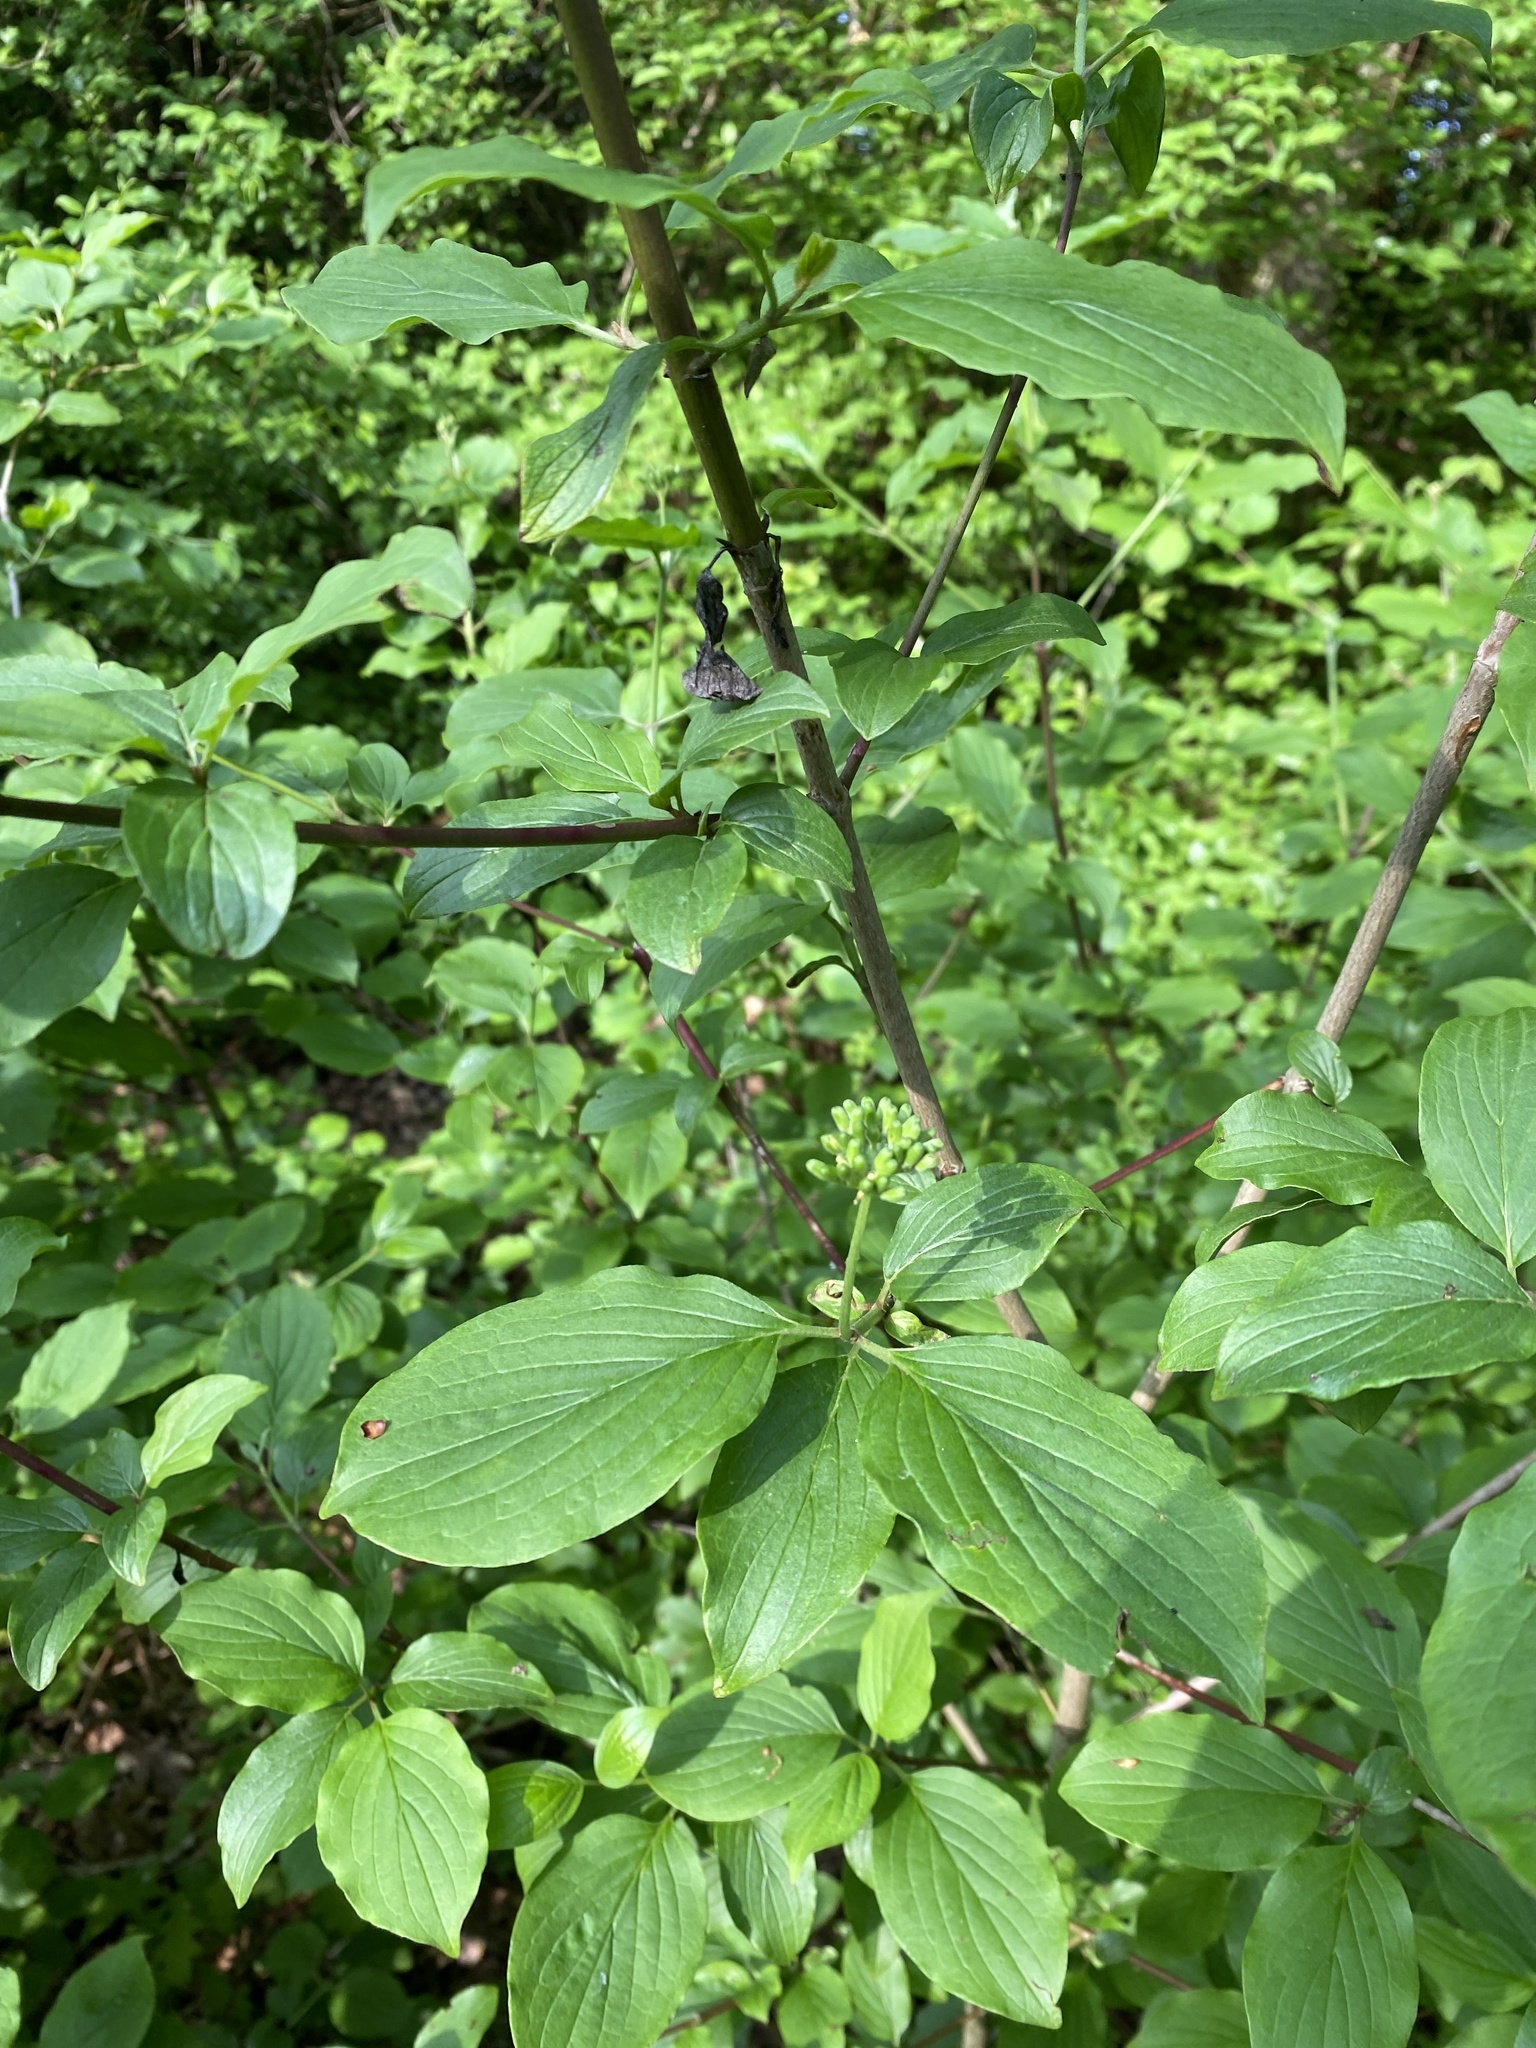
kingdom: Plantae
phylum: Tracheophyta
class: Magnoliopsida
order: Cornales
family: Cornaceae
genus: Cornus
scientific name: Cornus sanguinea
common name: Dogwood
